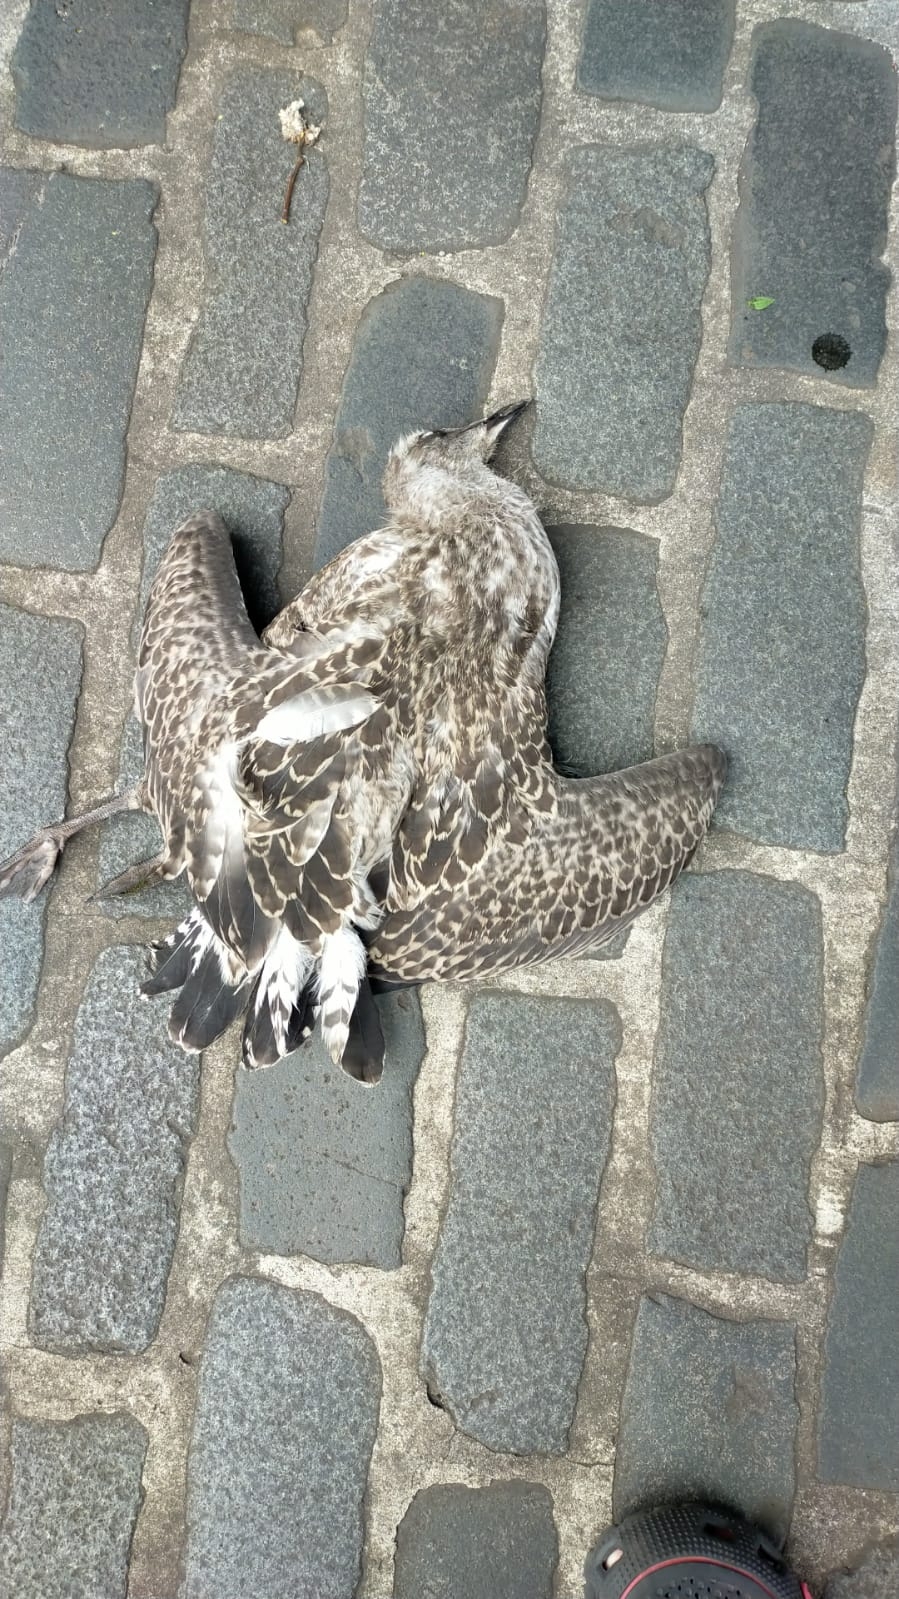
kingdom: Animalia
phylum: Chordata
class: Aves
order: Charadriiformes
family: Laridae
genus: Larus
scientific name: Larus michahellis
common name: Yellow-legged gull
